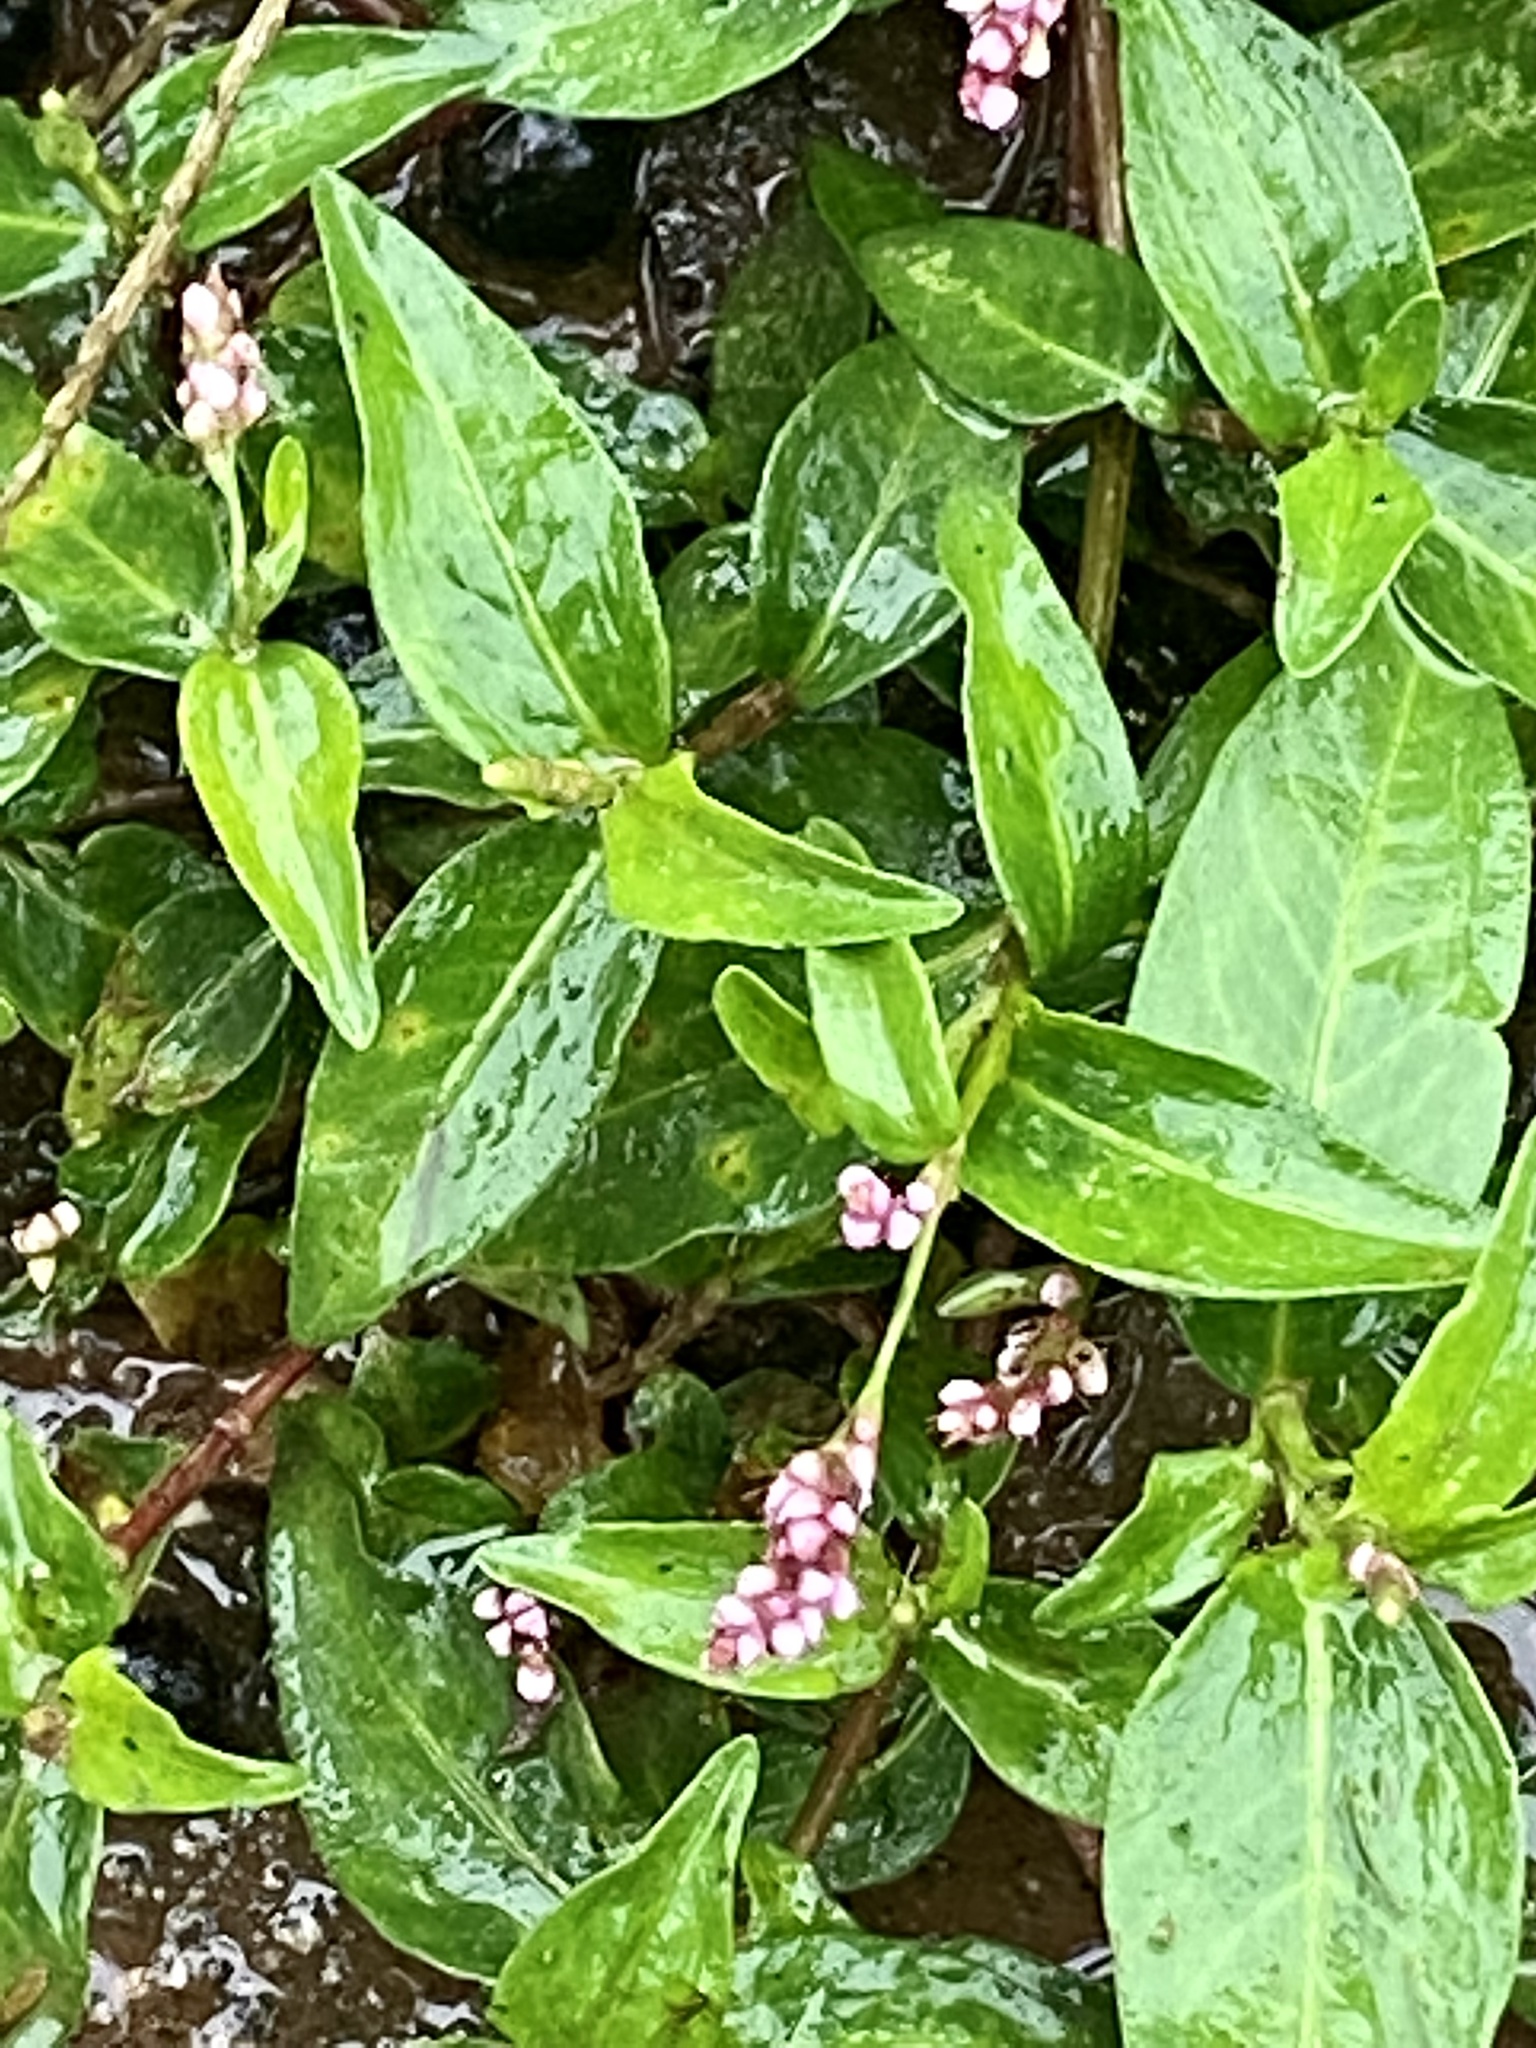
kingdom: Plantae
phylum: Tracheophyta
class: Magnoliopsida
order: Caryophyllales
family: Polygonaceae
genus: Persicaria
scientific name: Persicaria longiseta
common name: Bristly lady's-thumb
